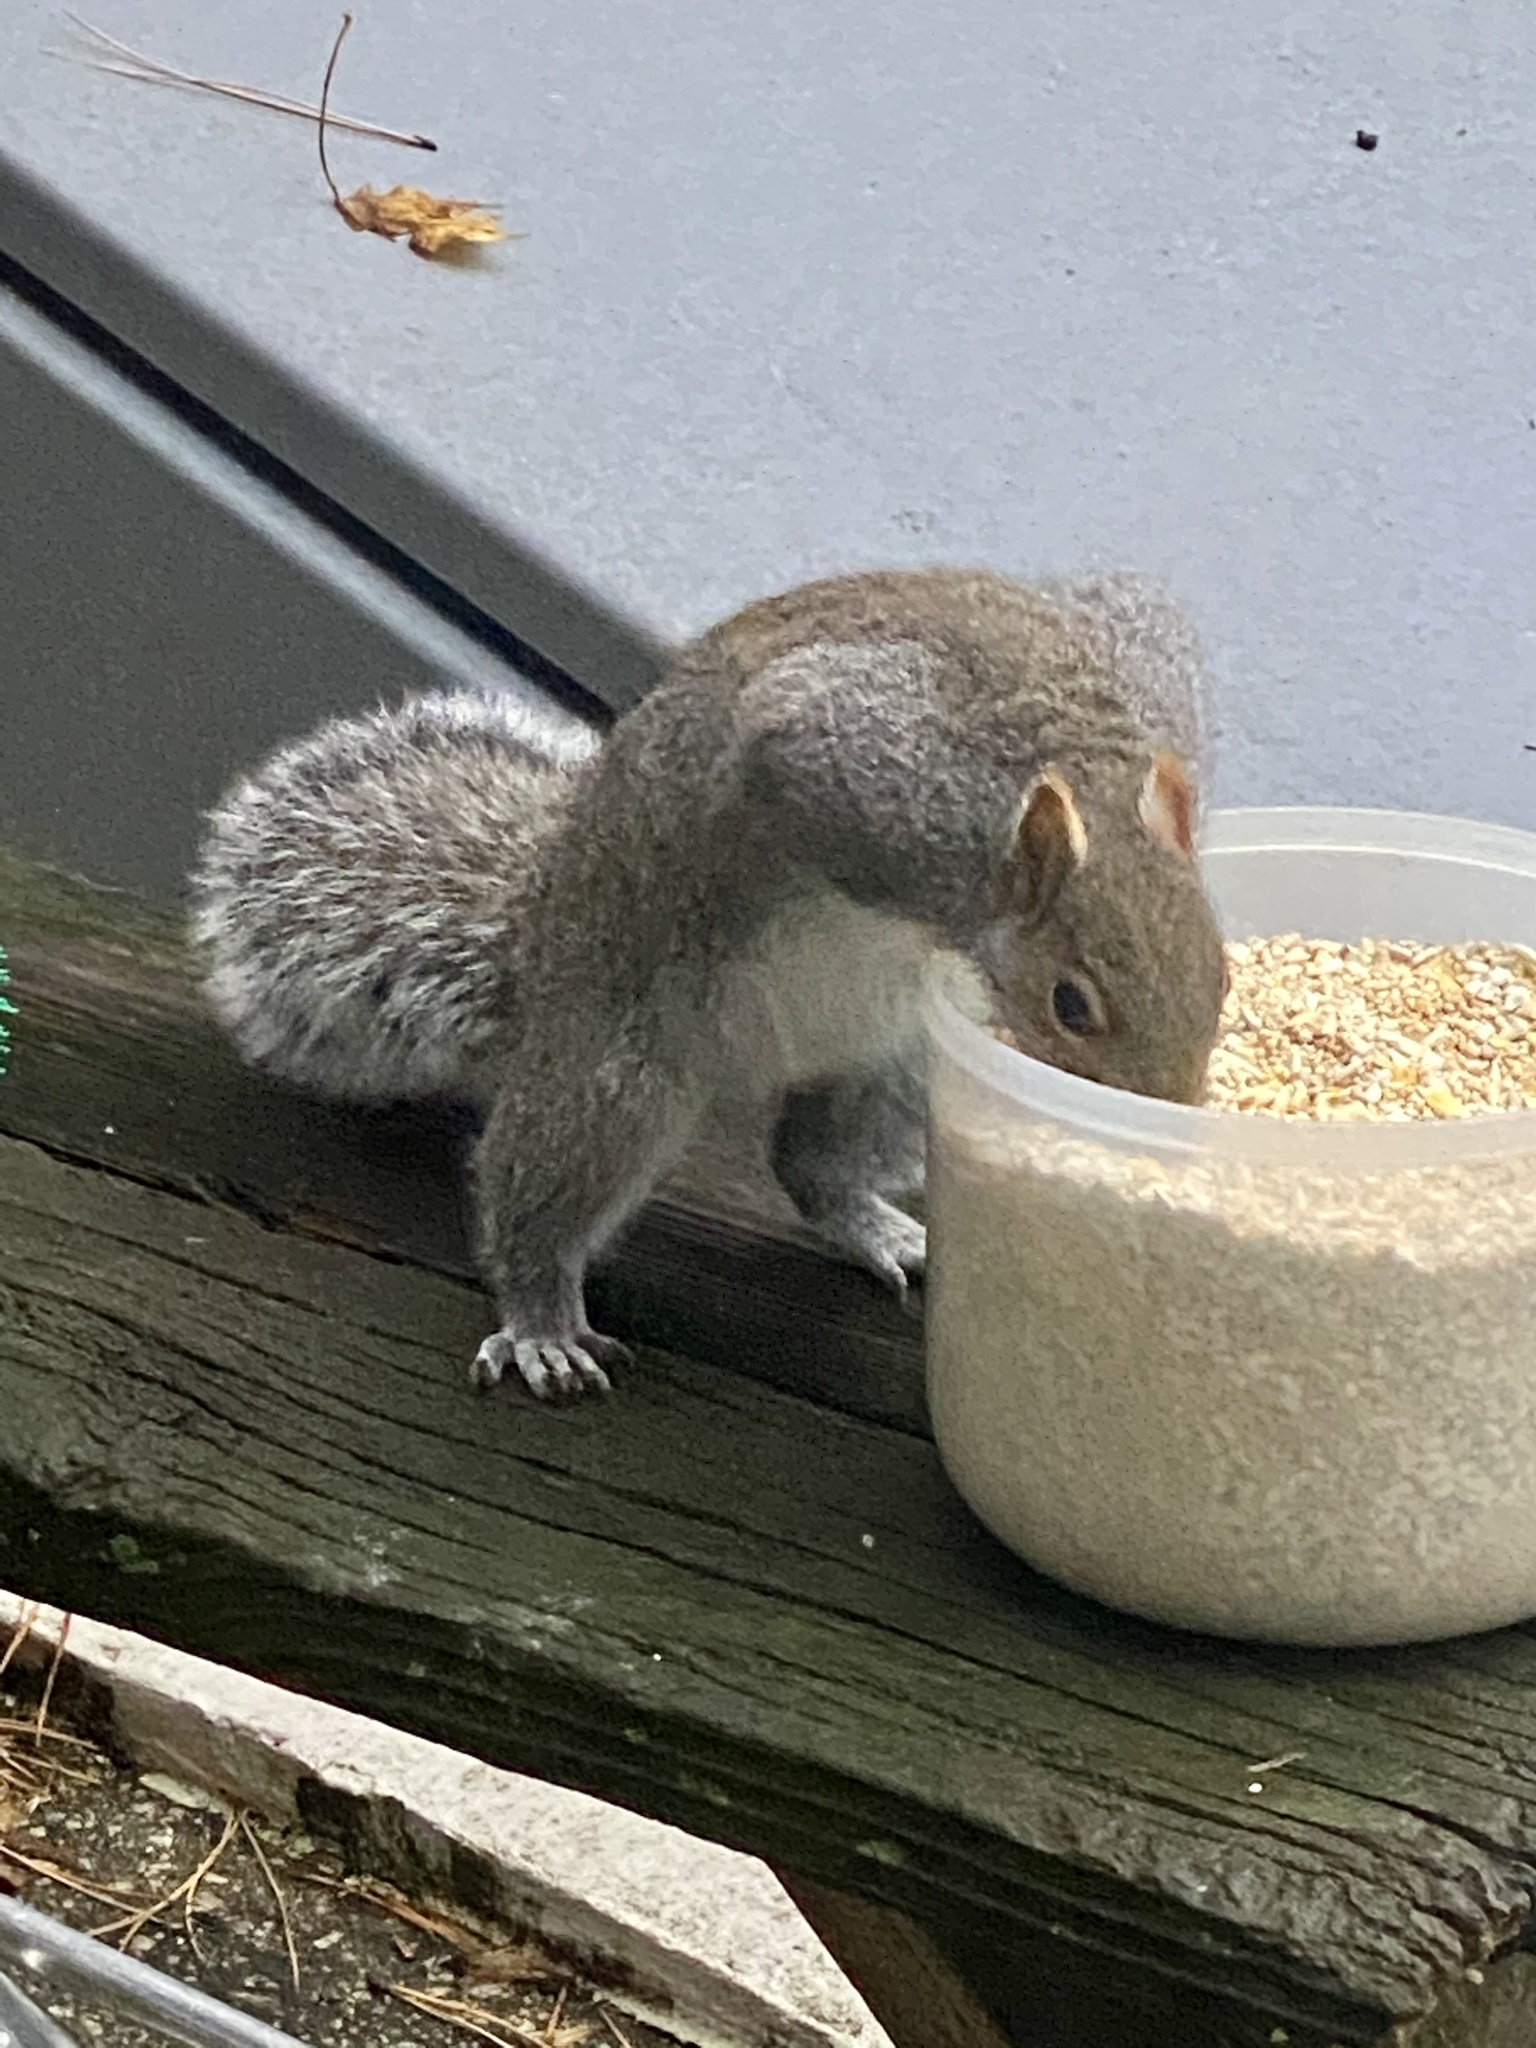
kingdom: Animalia
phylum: Chordata
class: Mammalia
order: Rodentia
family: Sciuridae
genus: Sciurus
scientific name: Sciurus carolinensis
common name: Eastern gray squirrel
